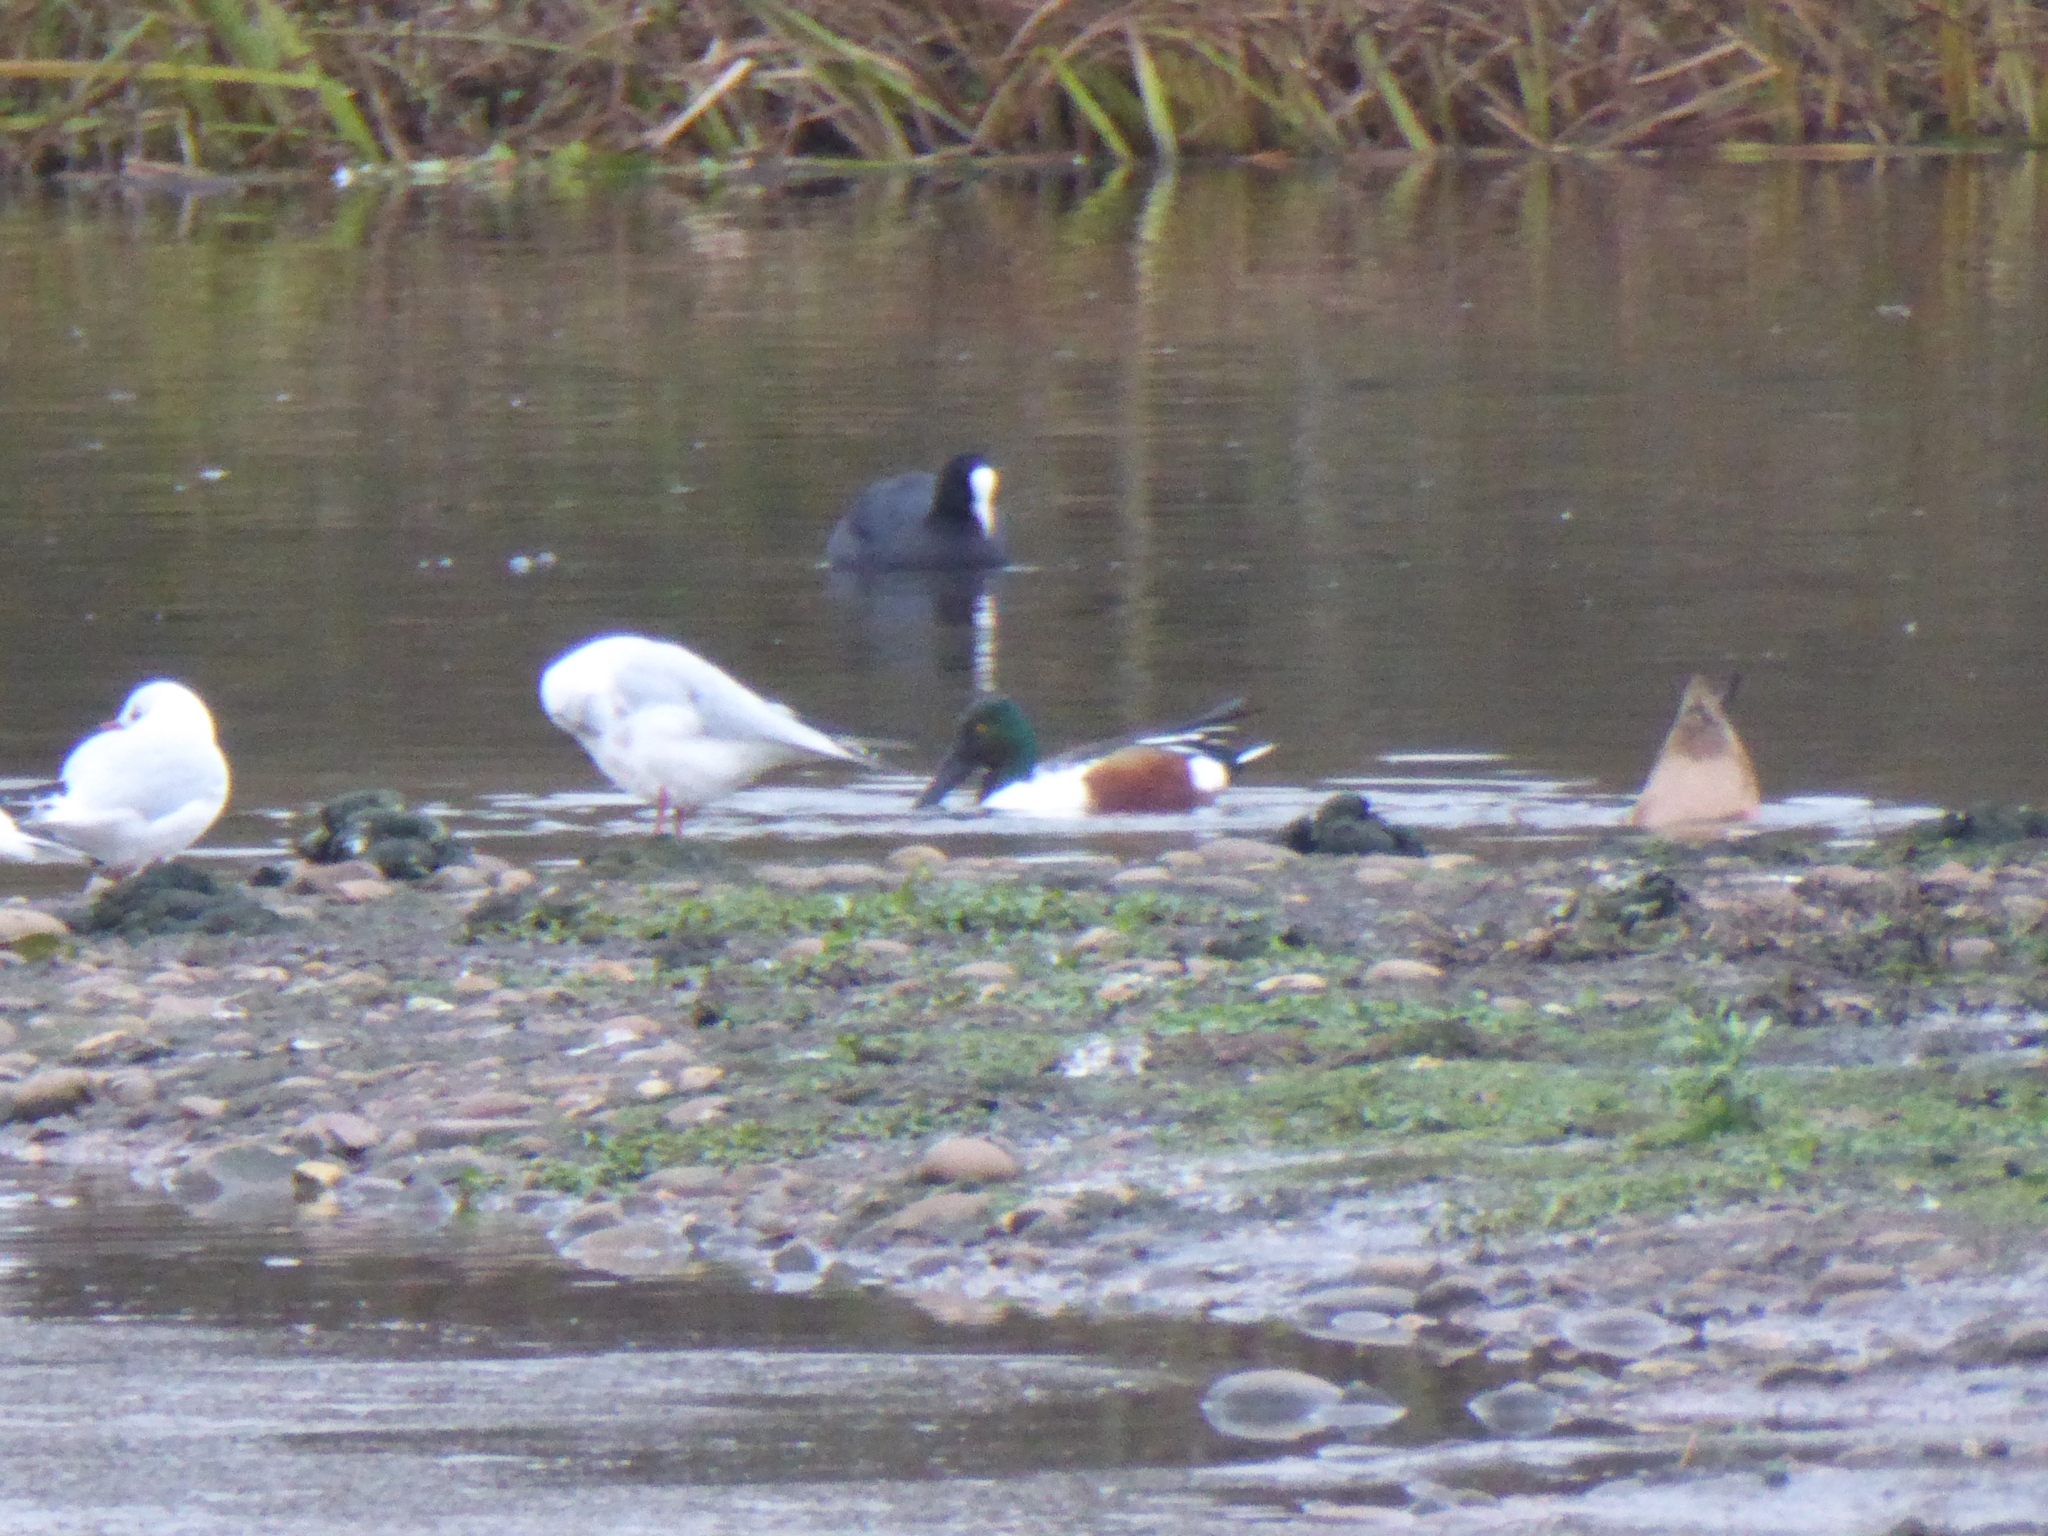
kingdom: Animalia
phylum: Chordata
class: Aves
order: Anseriformes
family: Anatidae
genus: Spatula
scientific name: Spatula clypeata
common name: Northern shoveler
